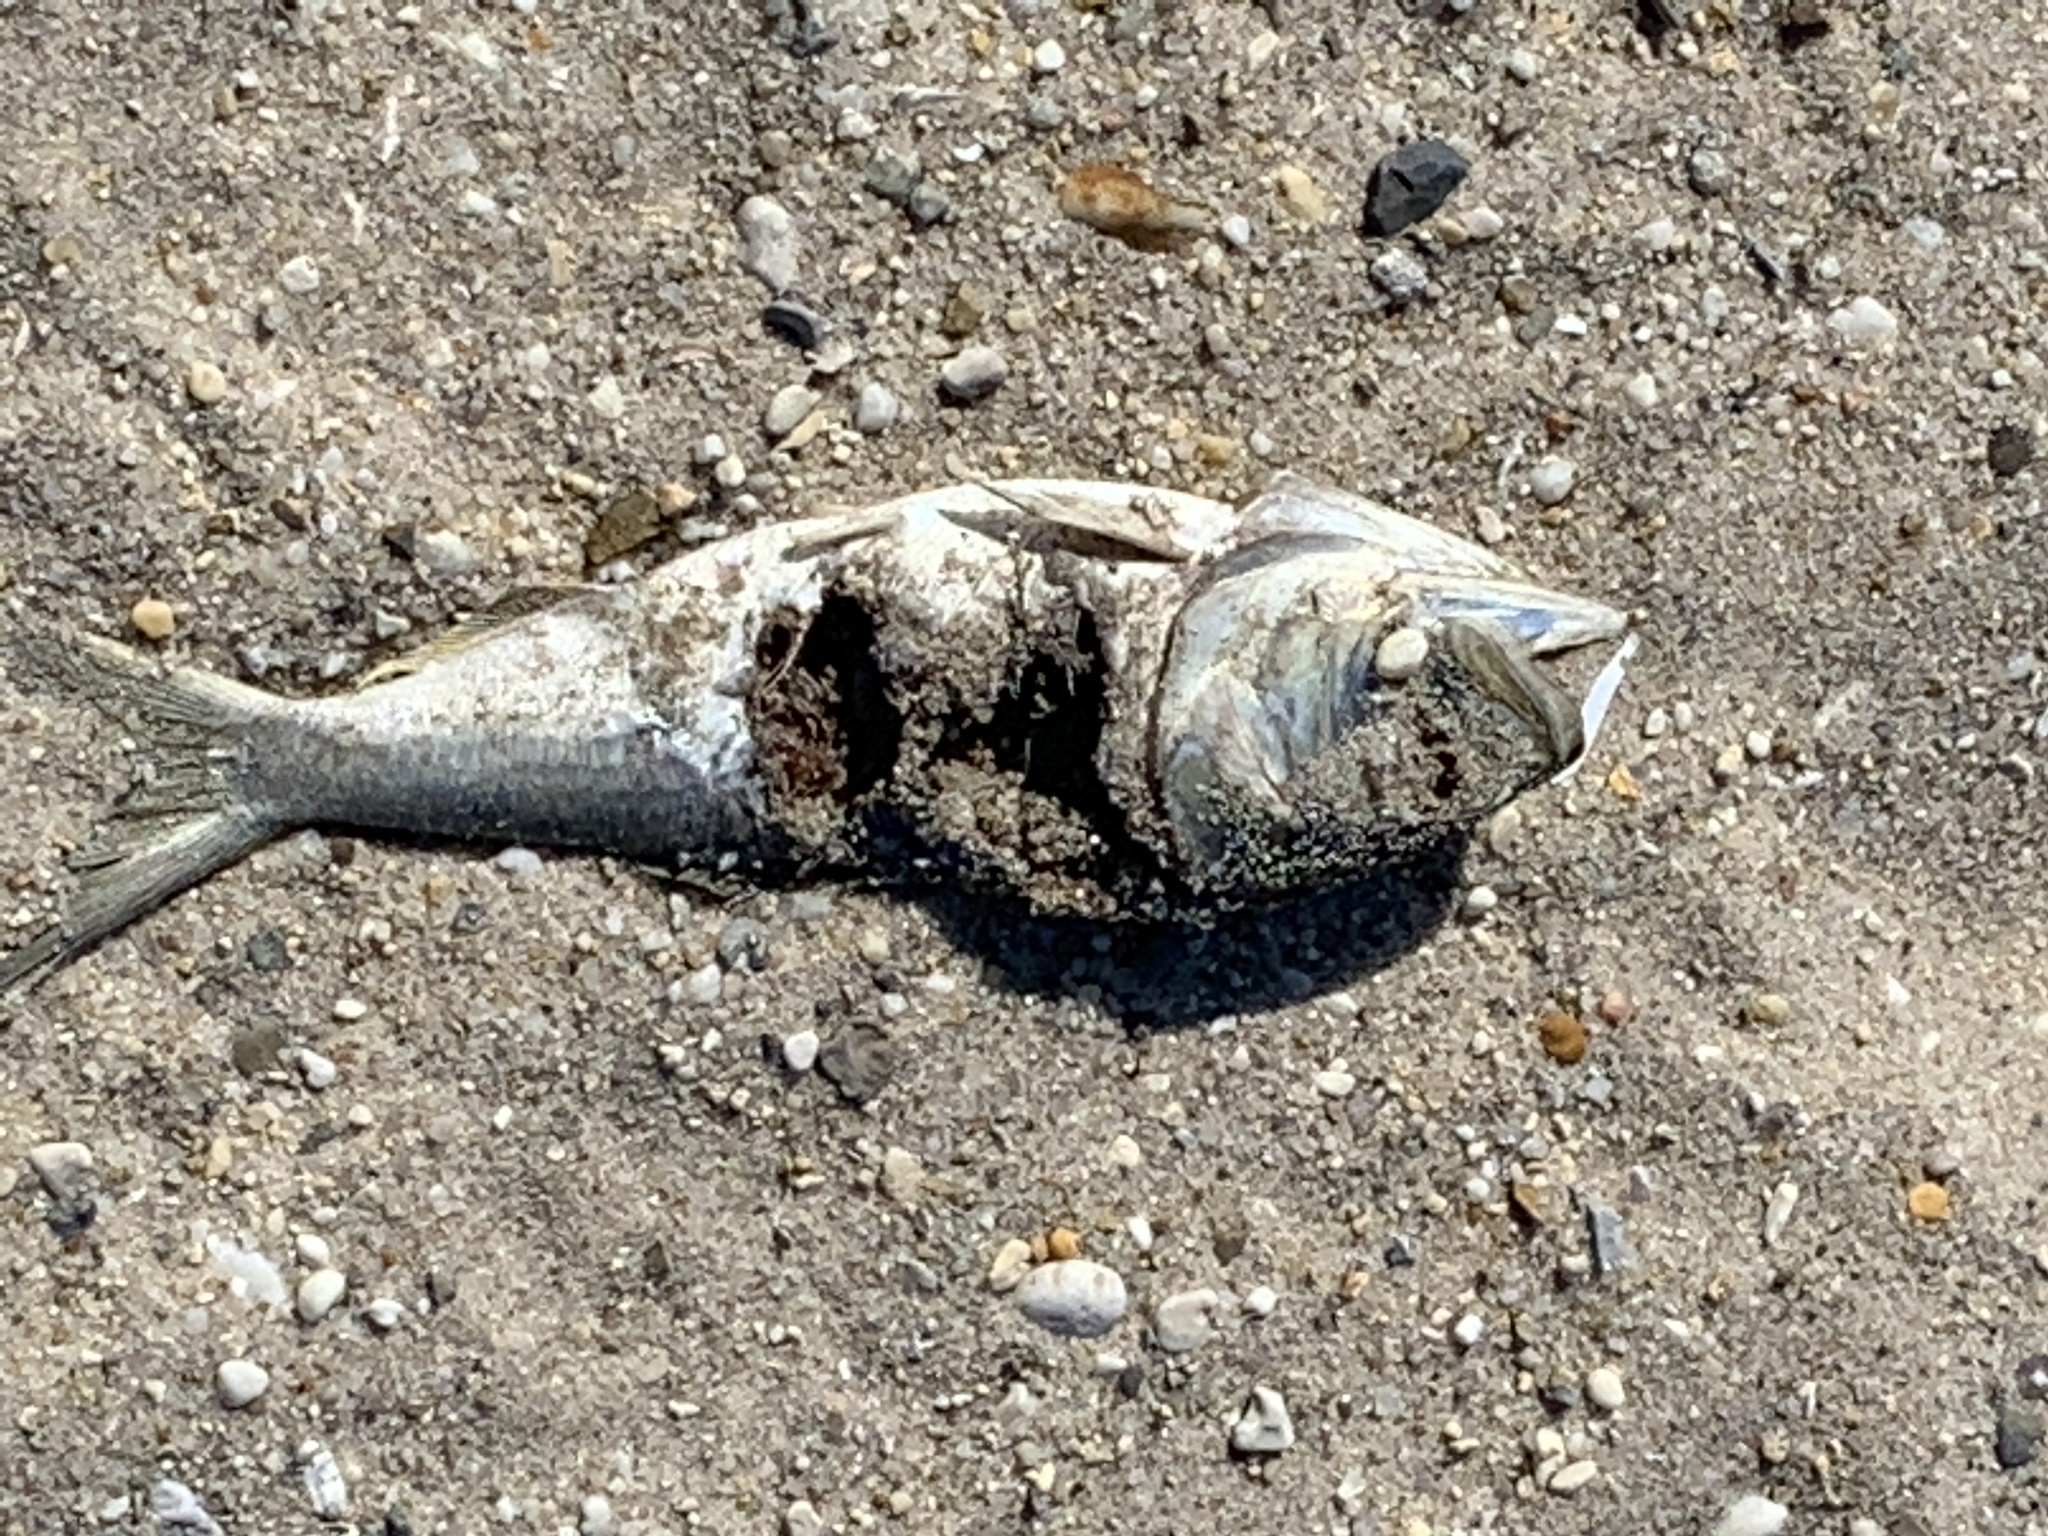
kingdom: Animalia
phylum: Chordata
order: Clupeiformes
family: Clupeidae
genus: Brevoortia
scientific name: Brevoortia tyrannus
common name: Atlantic menhaden
